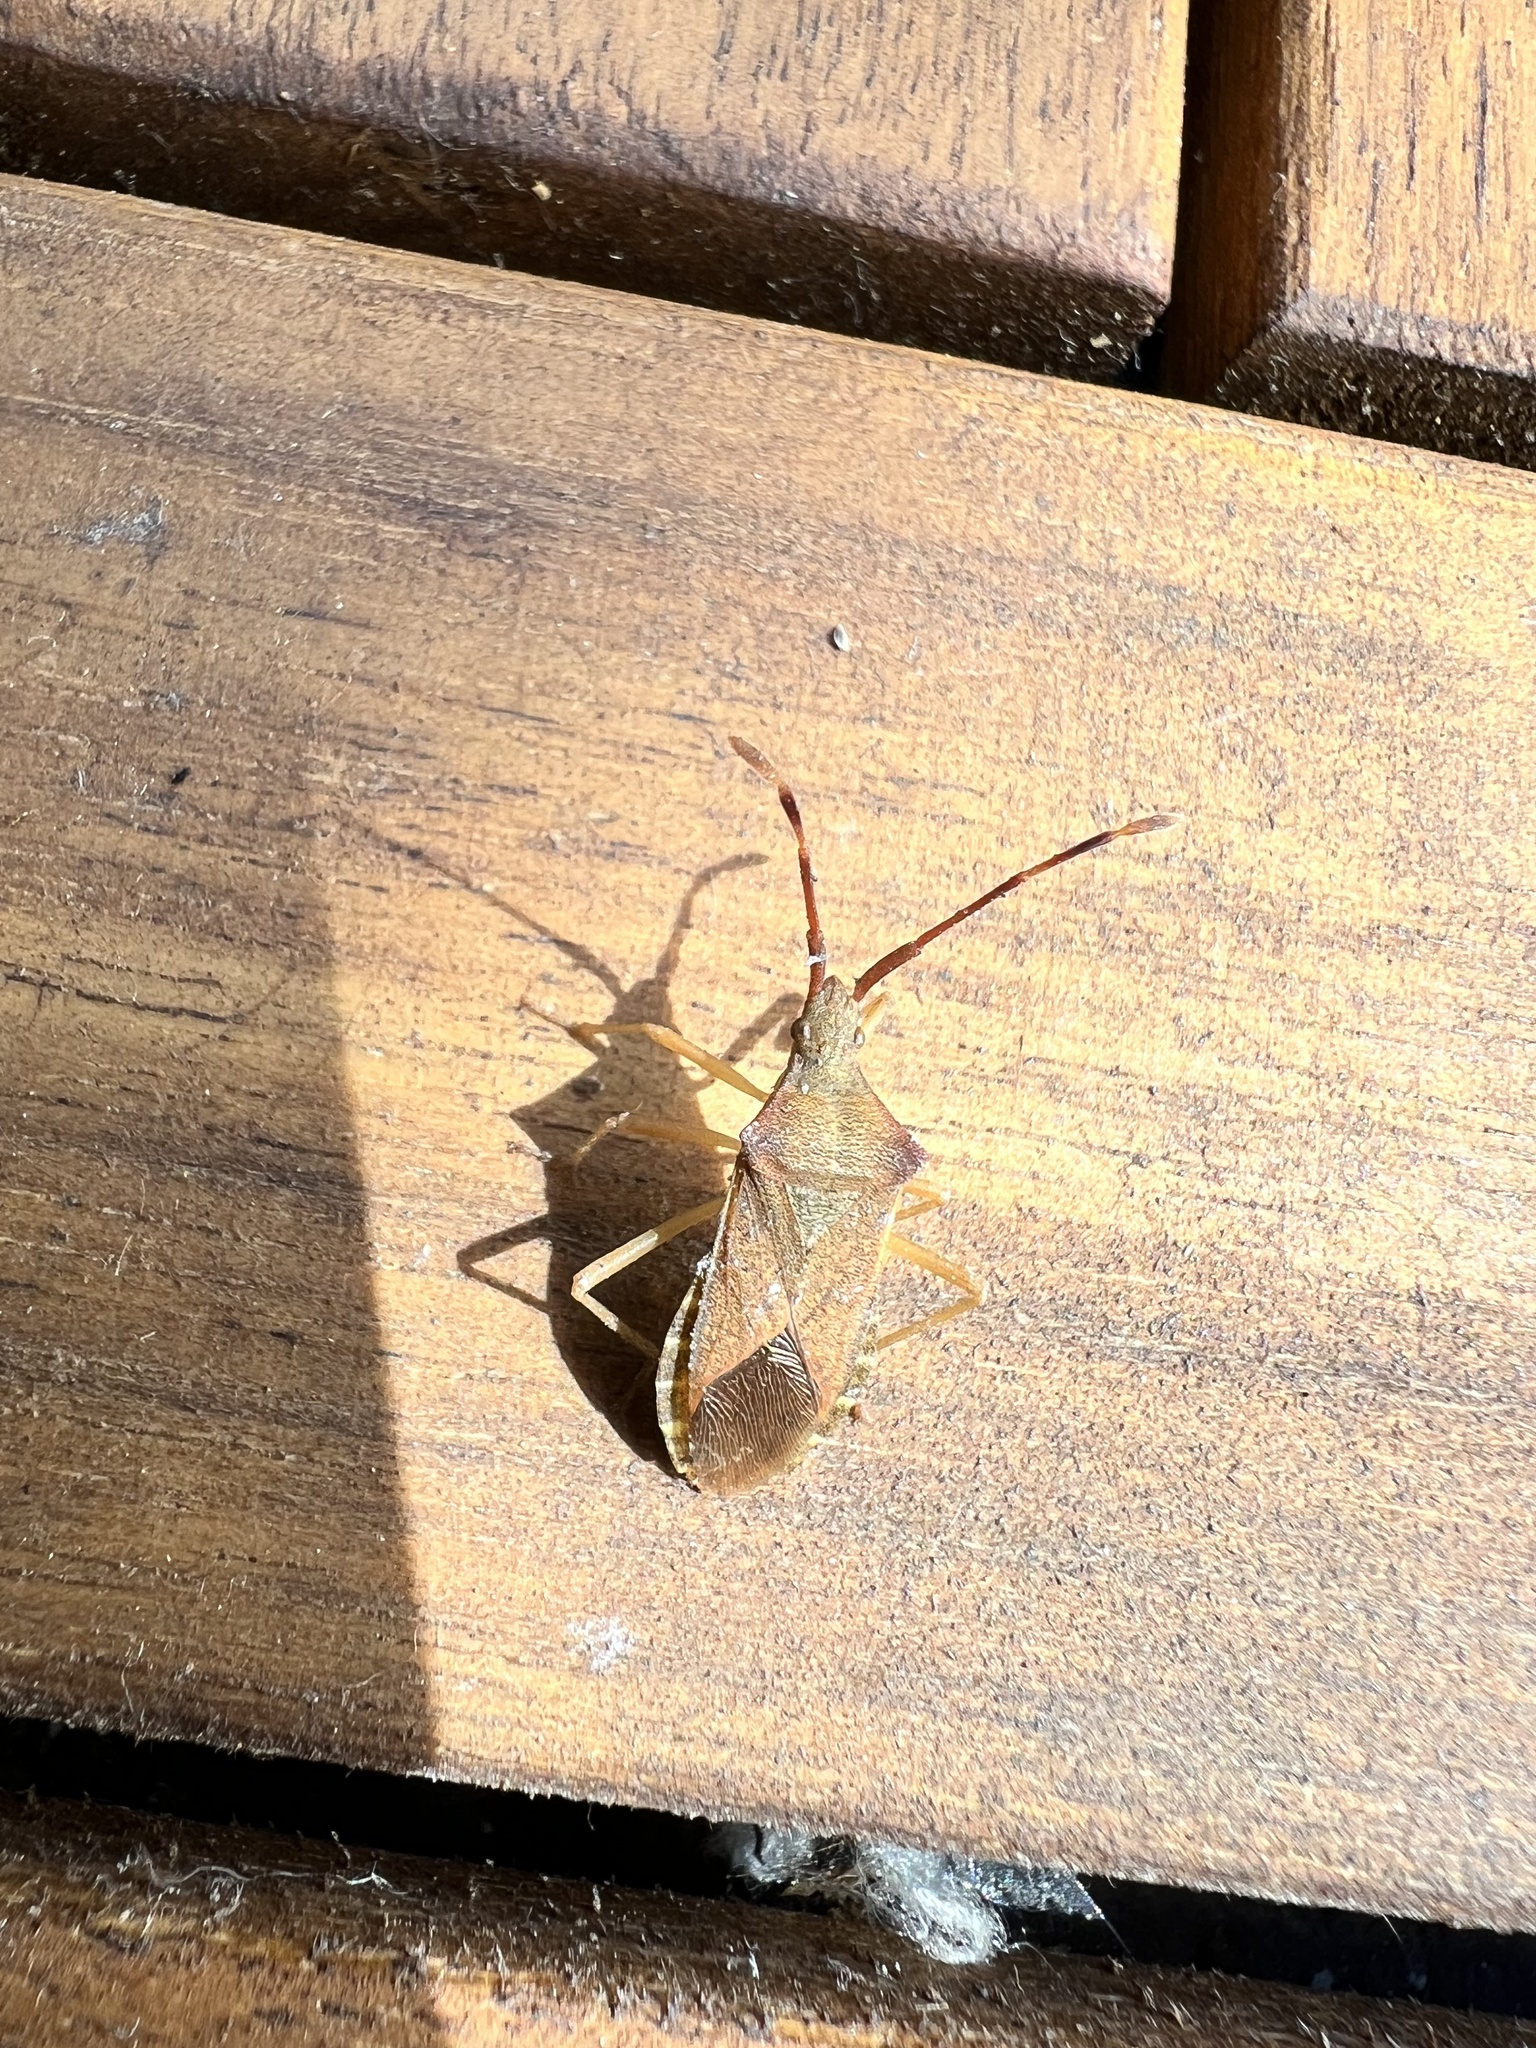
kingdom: Animalia
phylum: Arthropoda
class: Insecta
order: Hemiptera
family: Coreidae
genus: Gonocerus
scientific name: Gonocerus acuteangulatus
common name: Box bug
